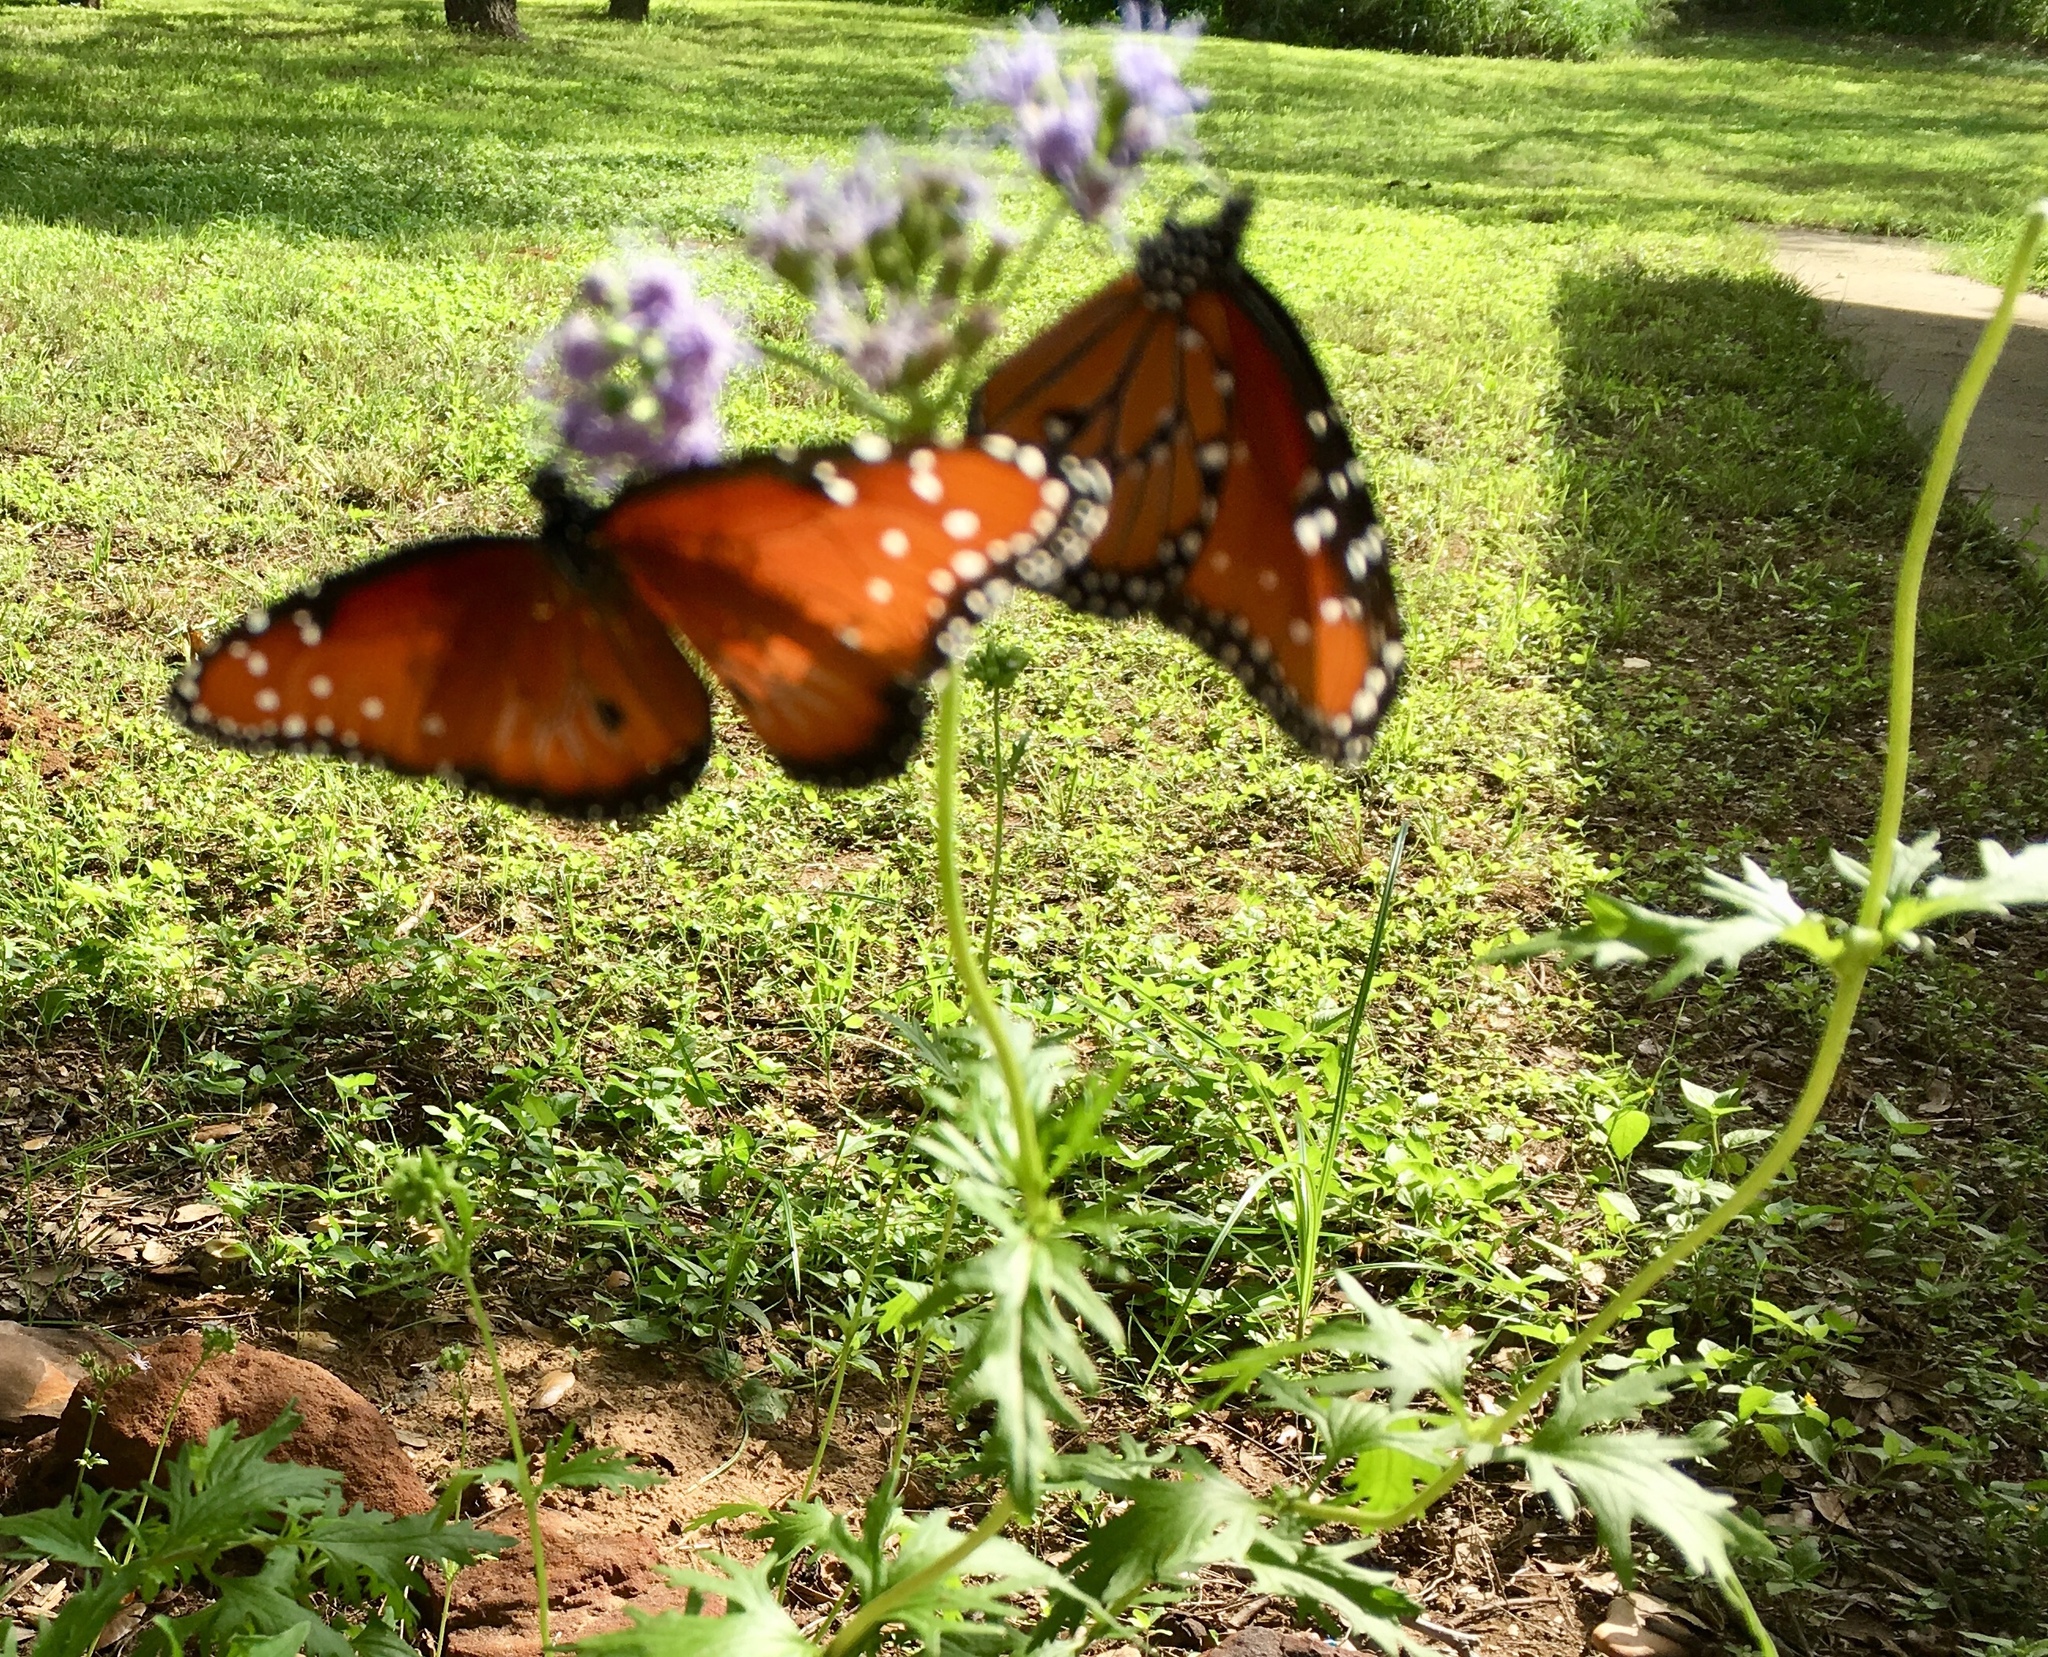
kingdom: Animalia
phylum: Arthropoda
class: Insecta
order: Lepidoptera
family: Nymphalidae
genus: Danaus
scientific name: Danaus gilippus
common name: Queen
